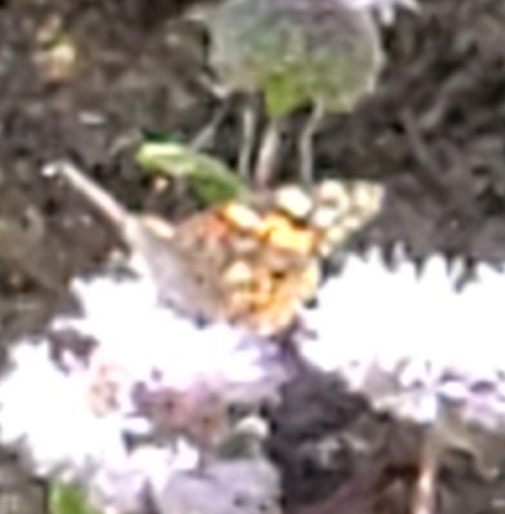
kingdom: Animalia
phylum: Arthropoda
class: Insecta
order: Lepidoptera
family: Nymphalidae
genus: Vanessa
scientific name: Vanessa cardui
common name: Painted lady
